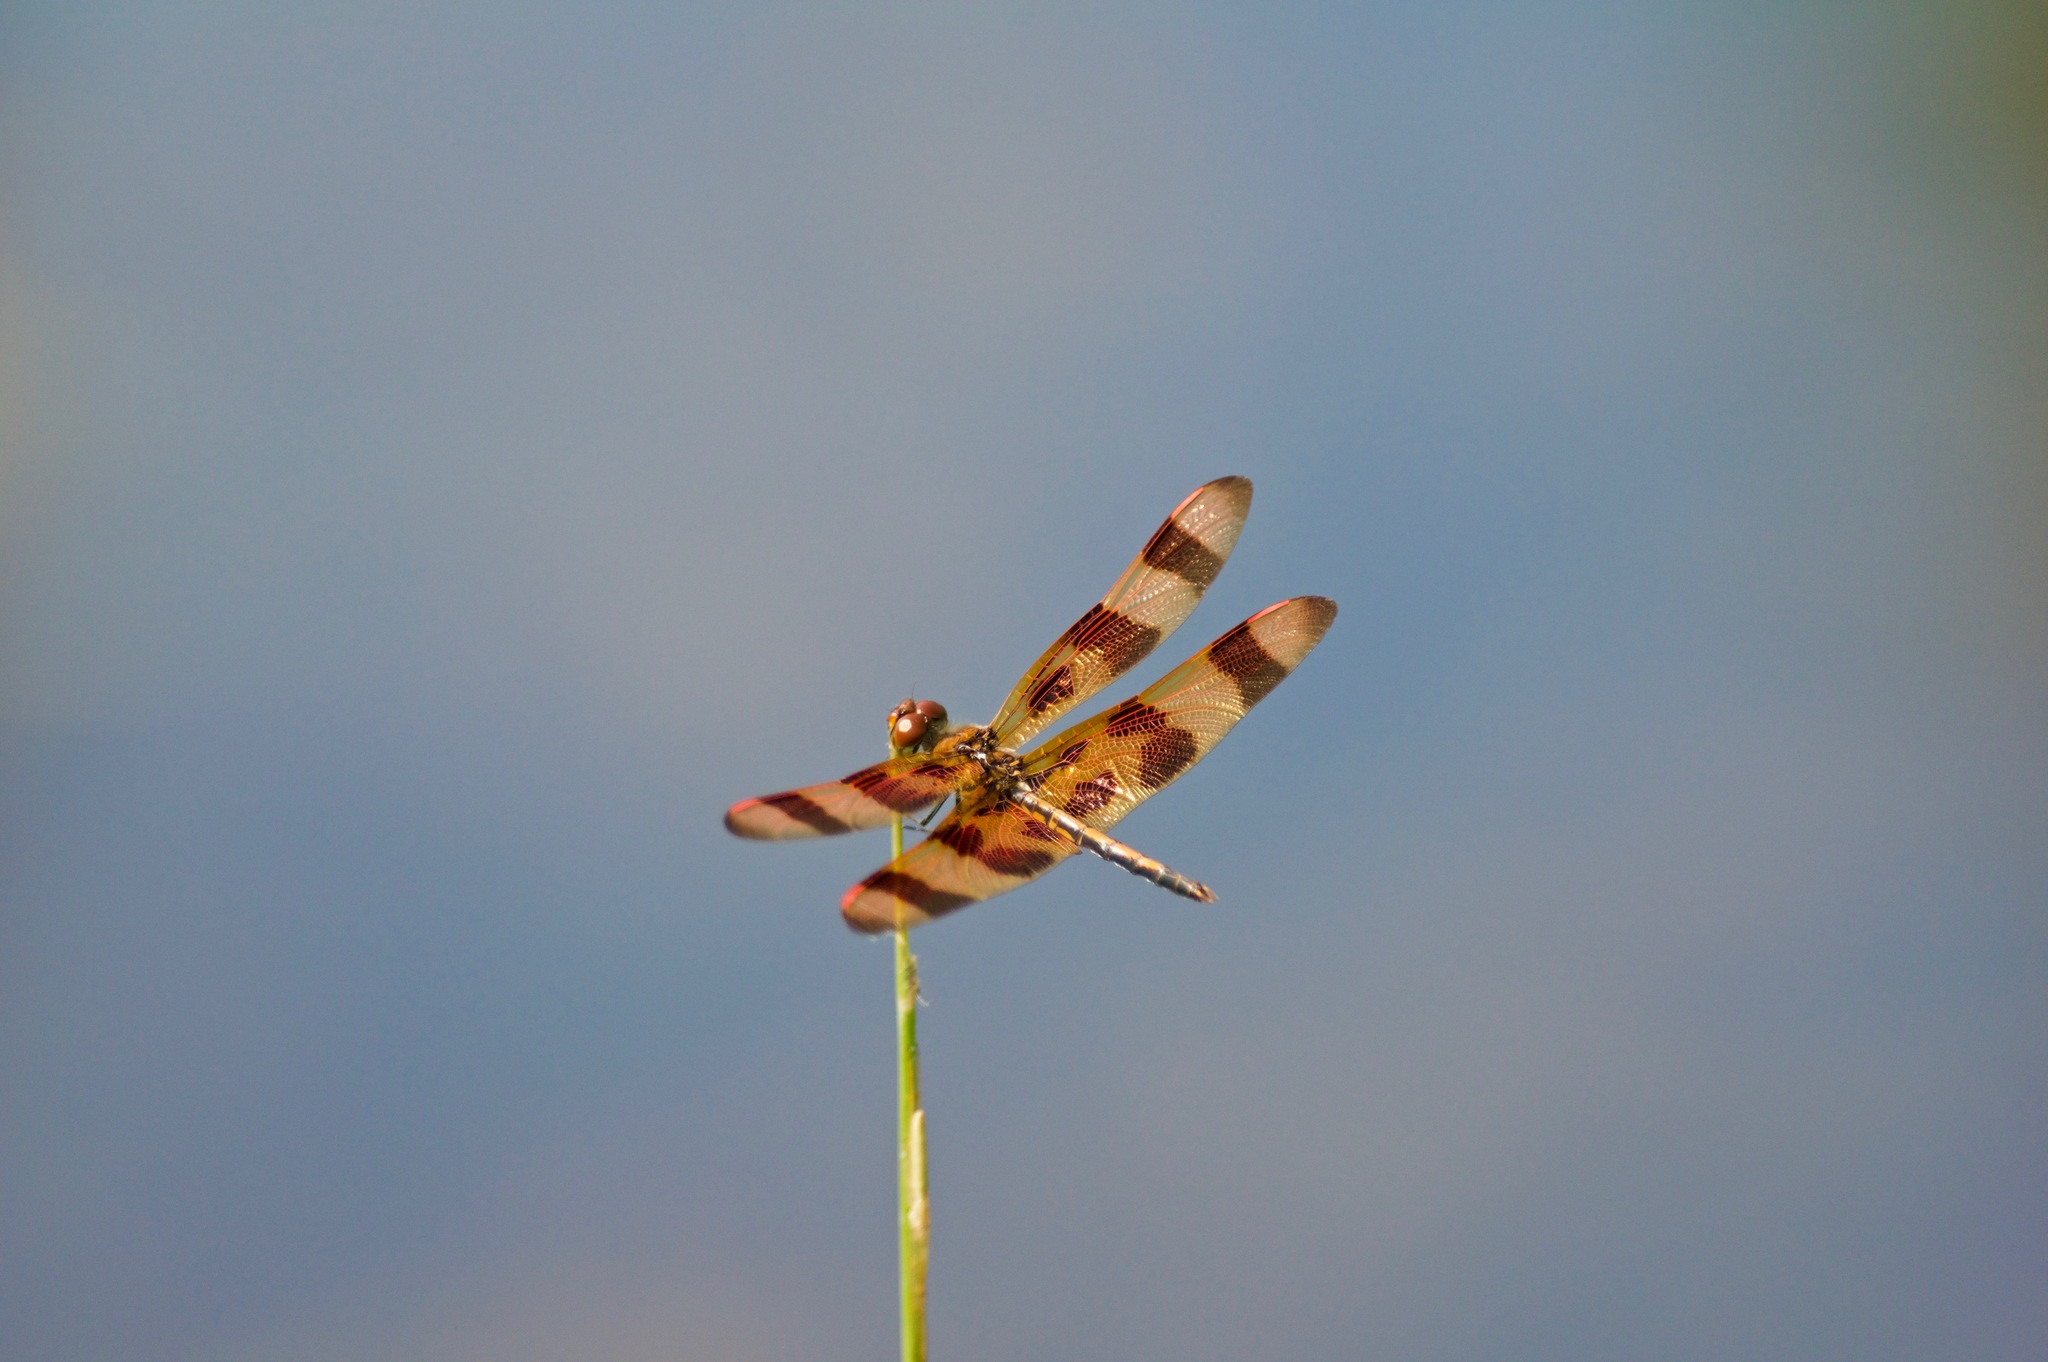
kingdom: Animalia
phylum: Arthropoda
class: Insecta
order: Odonata
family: Libellulidae
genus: Celithemis
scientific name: Celithemis eponina
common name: Halloween pennant
